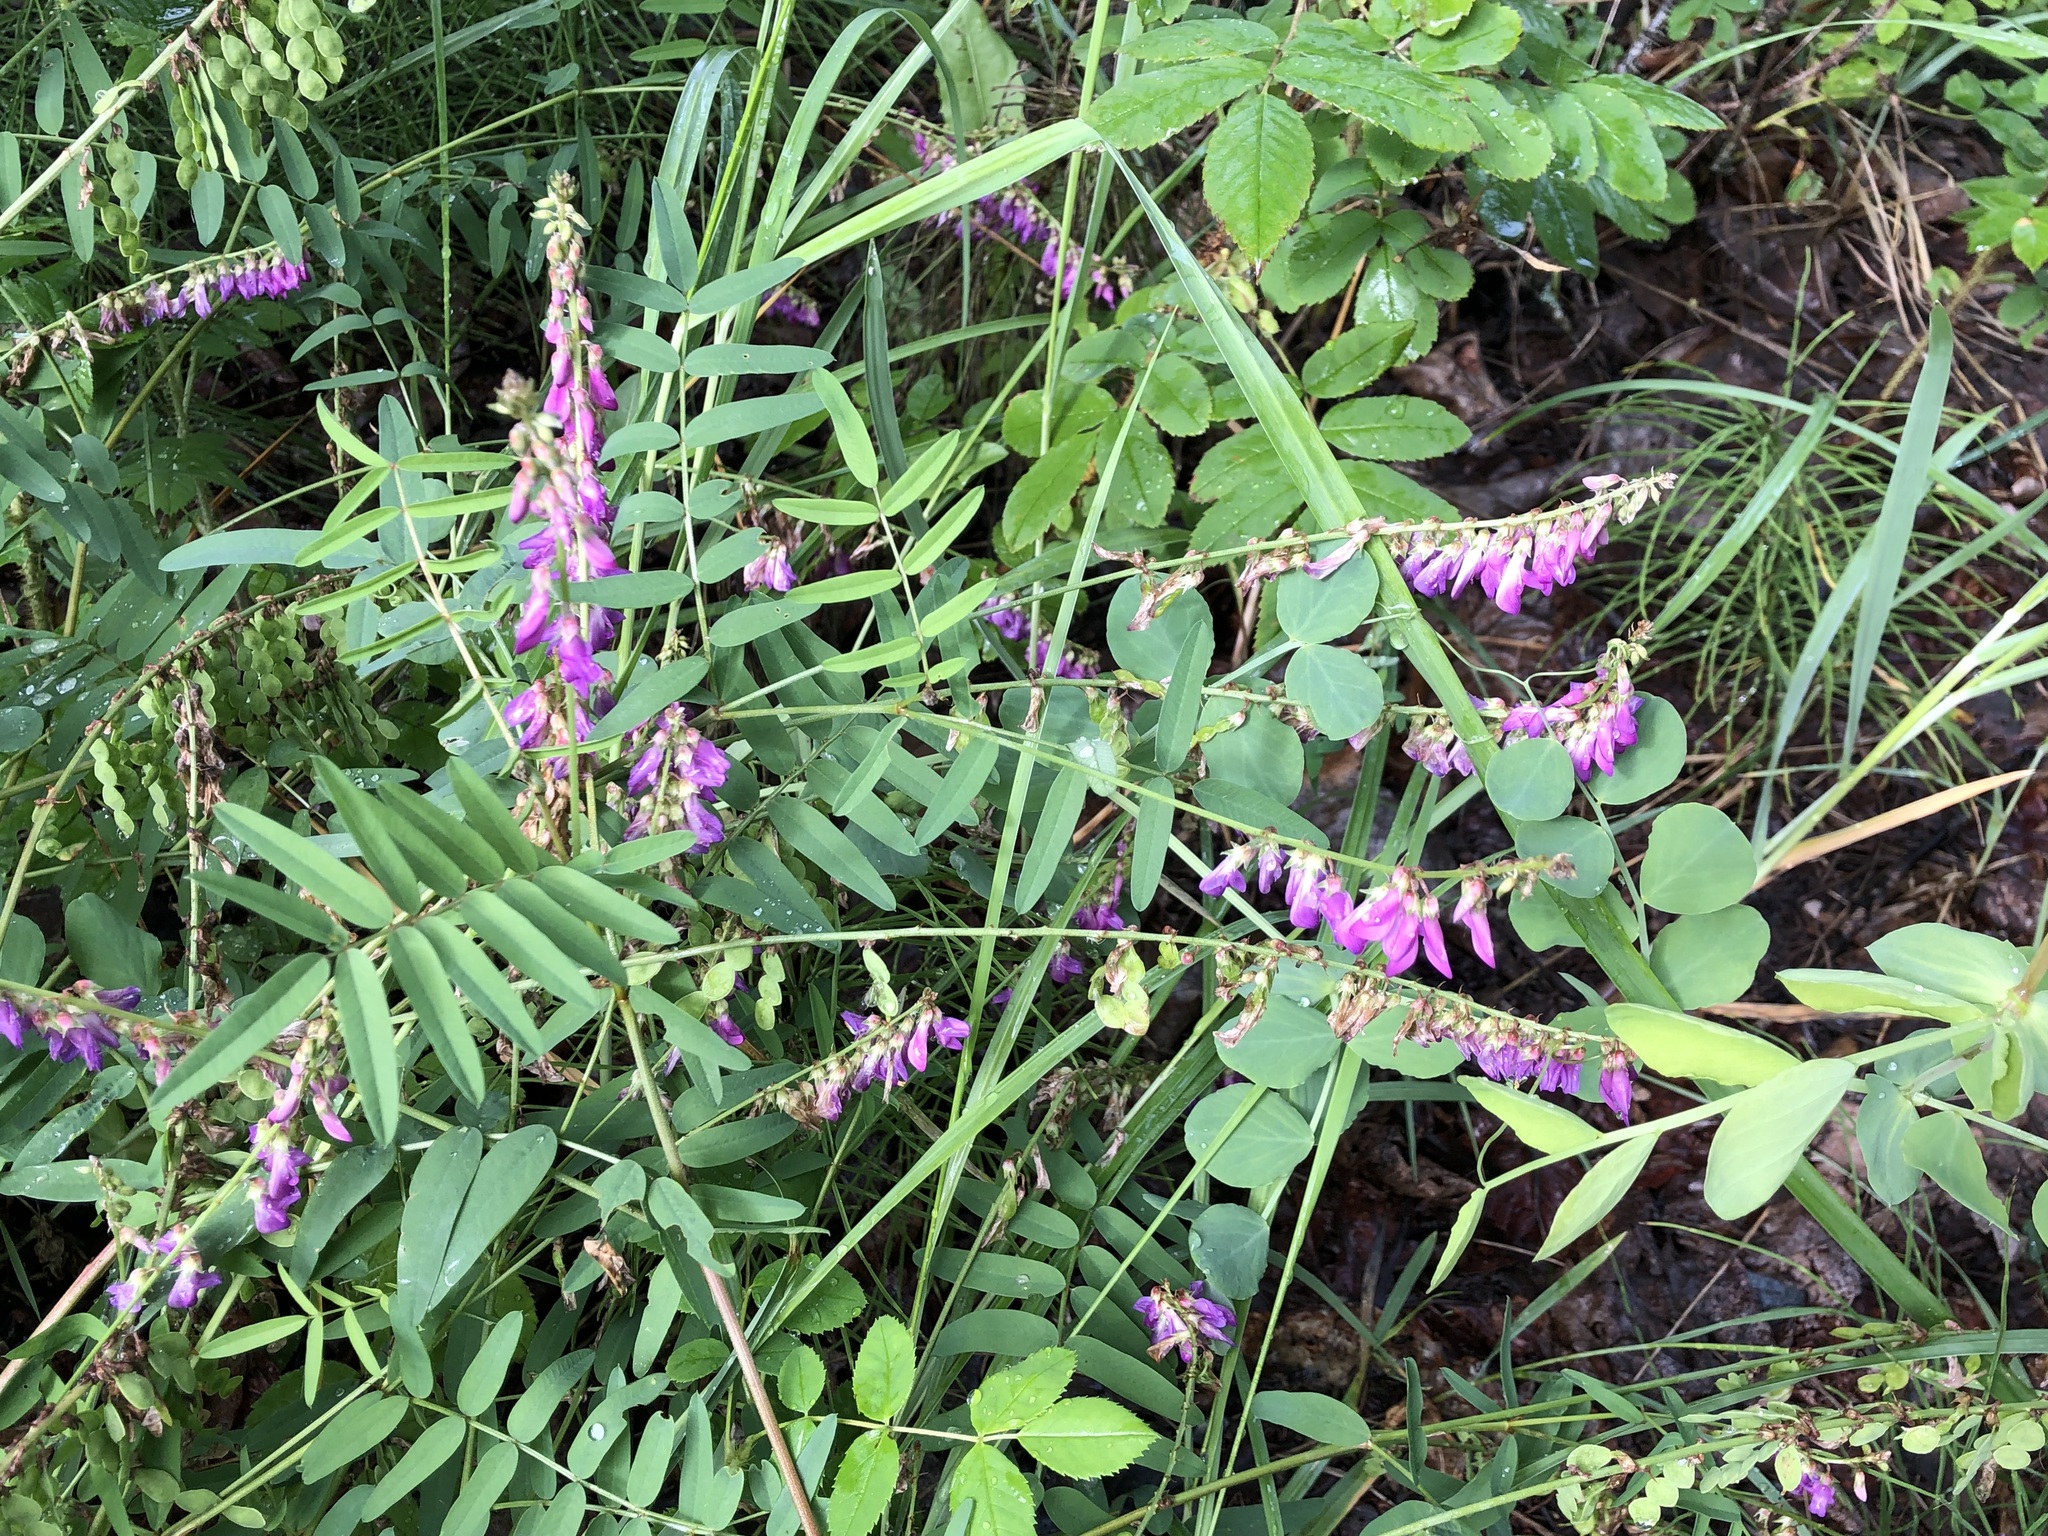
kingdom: Plantae
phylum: Tracheophyta
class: Magnoliopsida
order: Fabales
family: Fabaceae
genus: Hedysarum
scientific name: Hedysarum alpinum
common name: Alpine sweet-vetch
